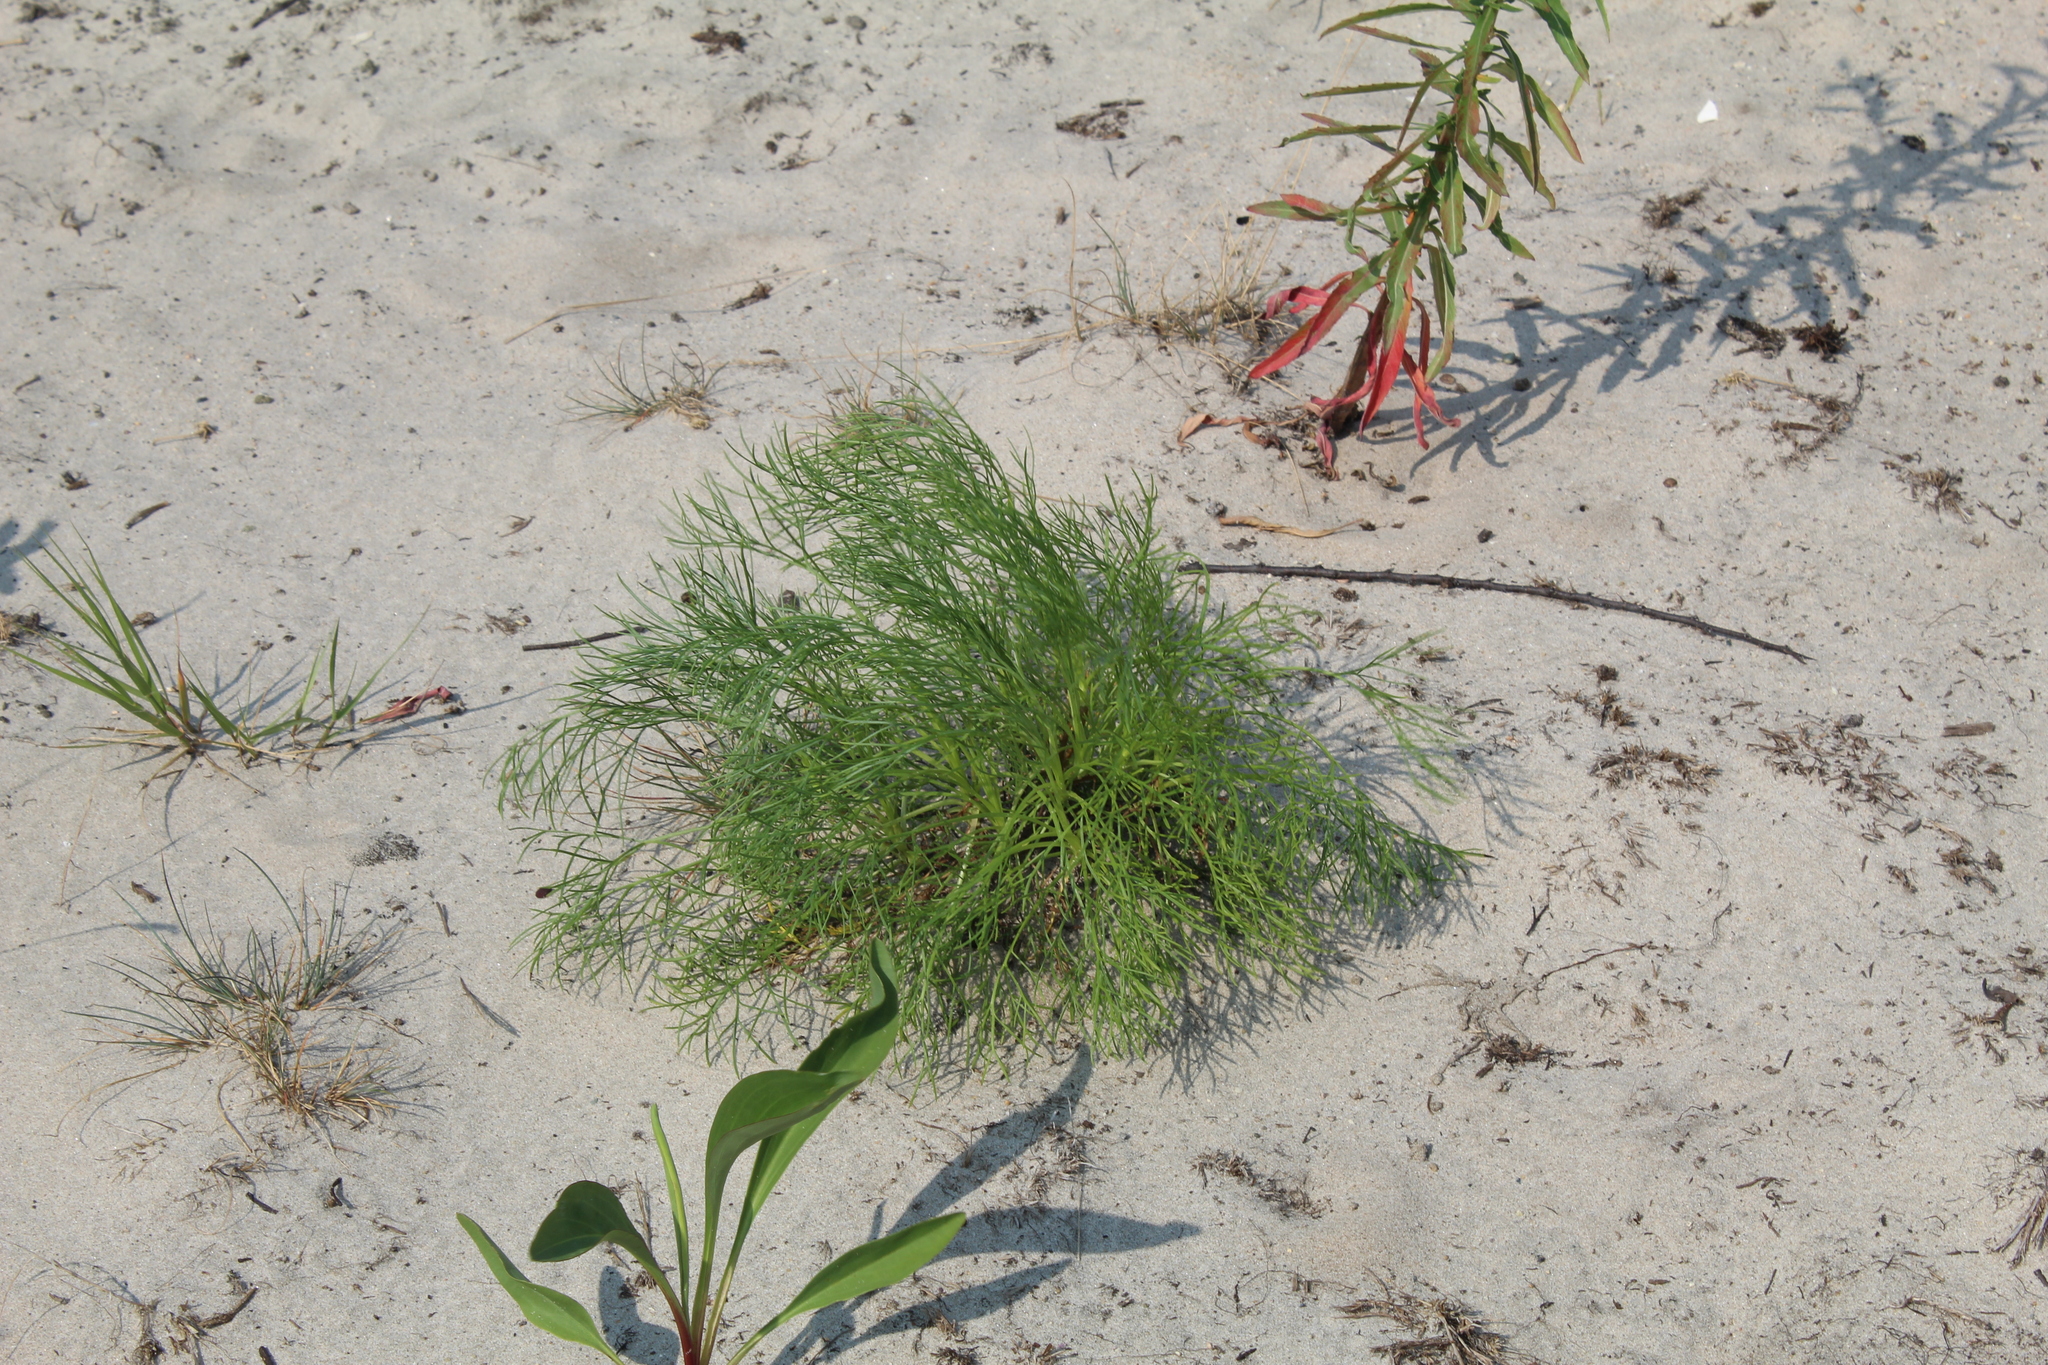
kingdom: Plantae
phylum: Tracheophyta
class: Magnoliopsida
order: Asterales
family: Asteraceae
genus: Artemisia
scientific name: Artemisia campestris
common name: Field wormwood
